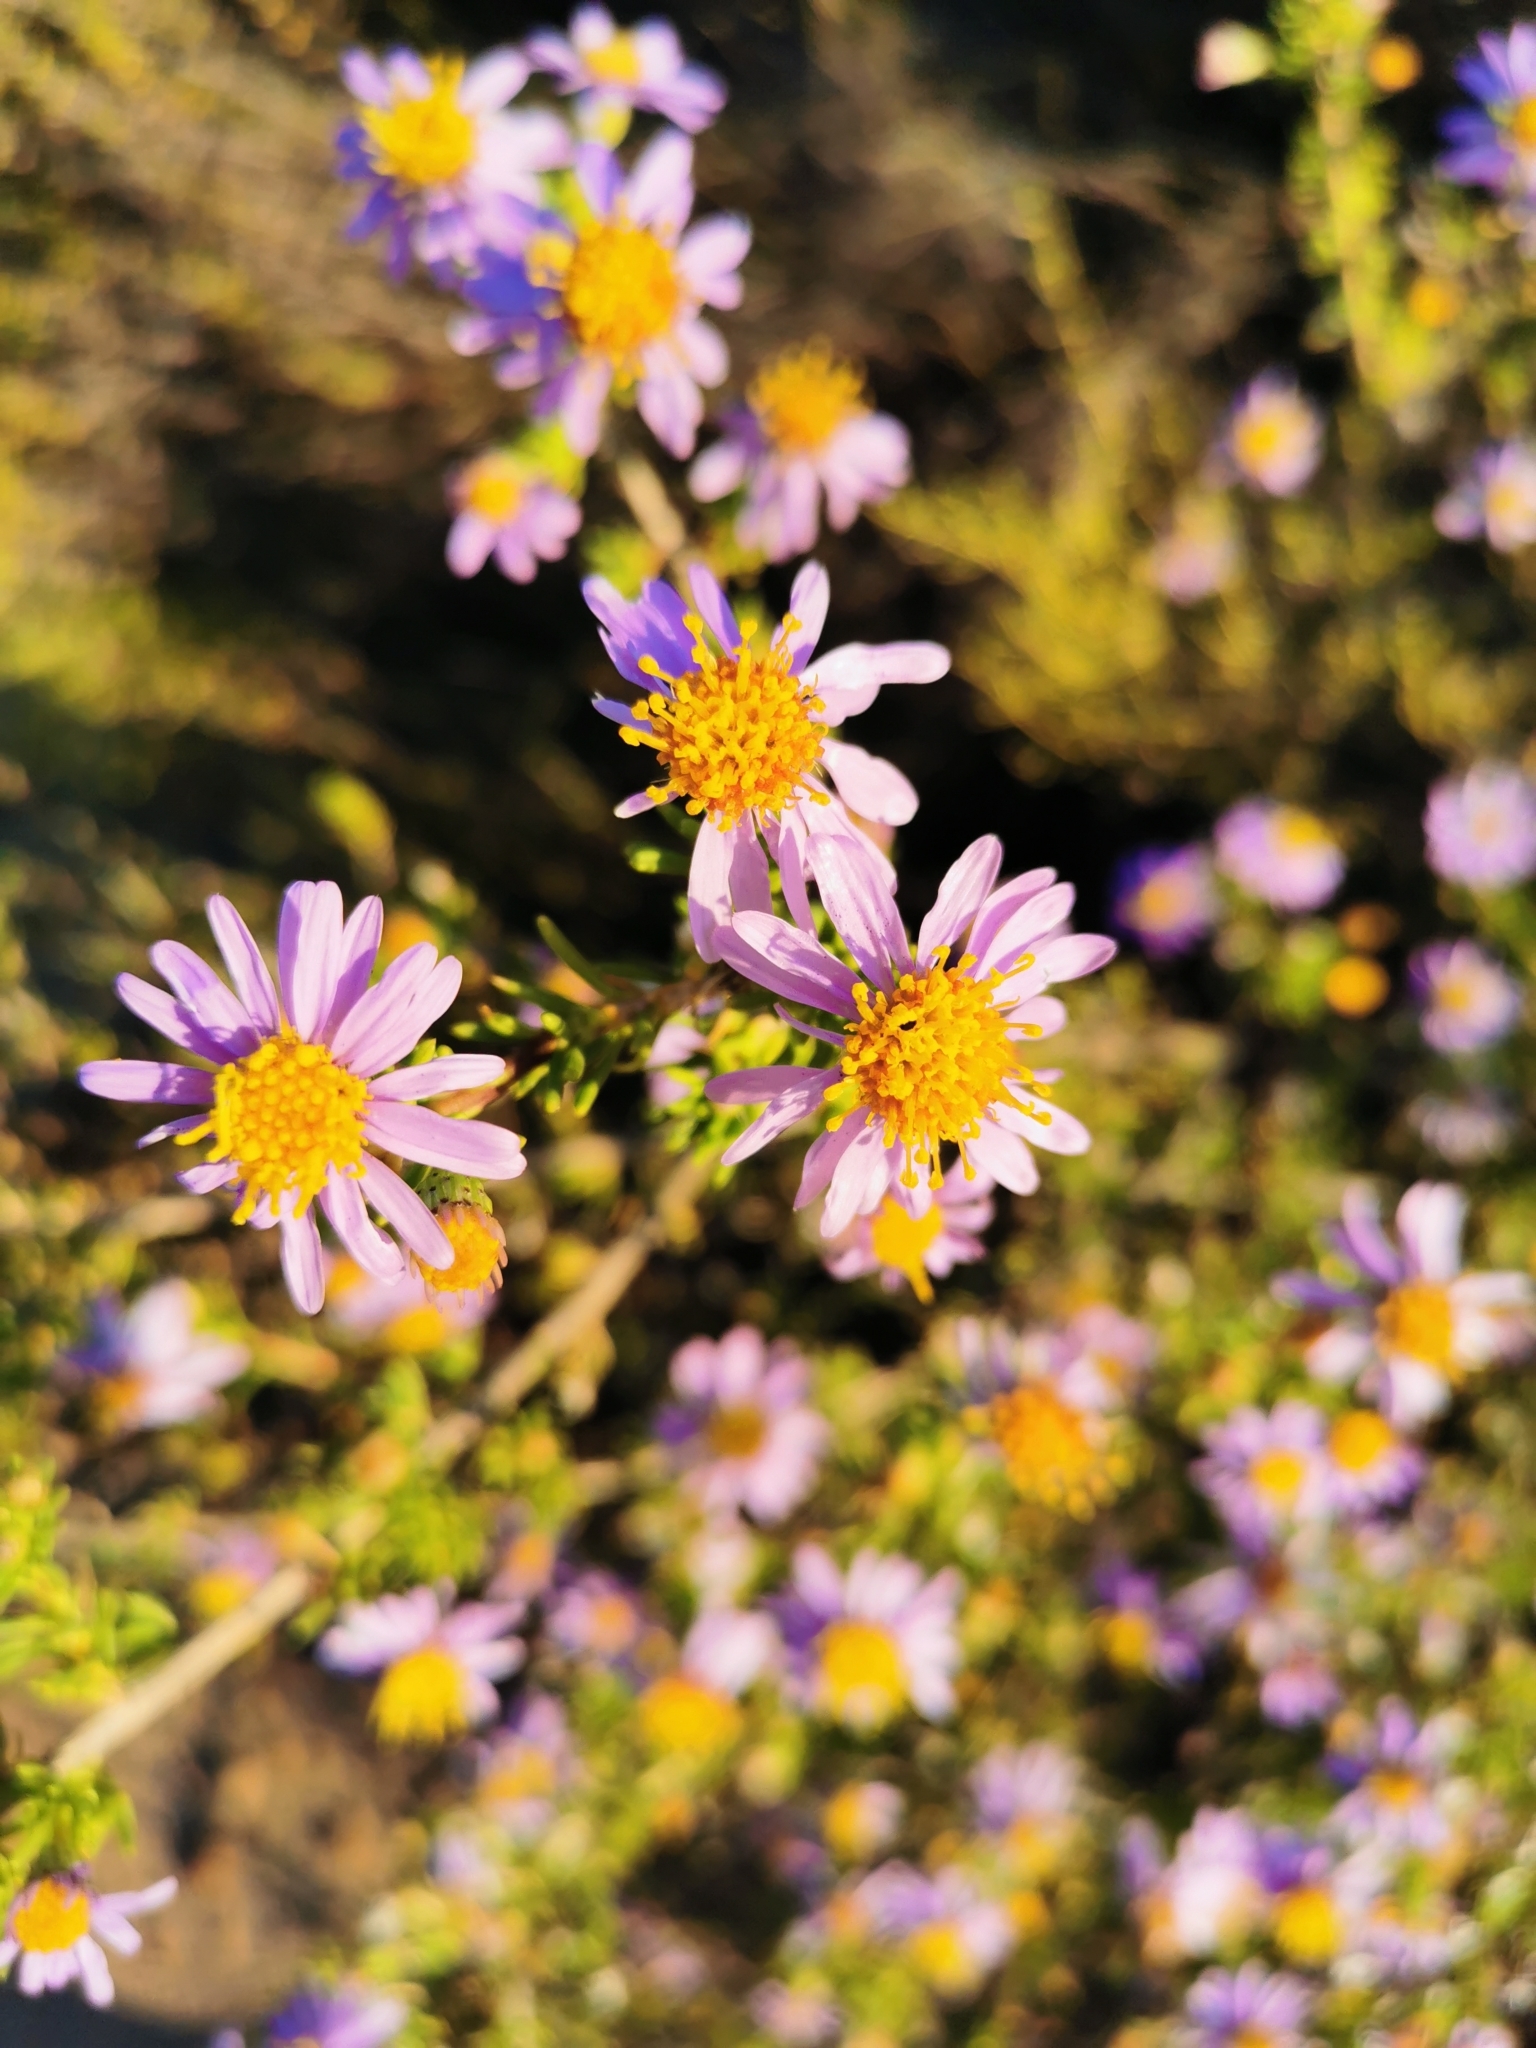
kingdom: Plantae
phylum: Tracheophyta
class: Magnoliopsida
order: Asterales
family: Asteraceae
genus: Felicia
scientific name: Felicia filifolia
